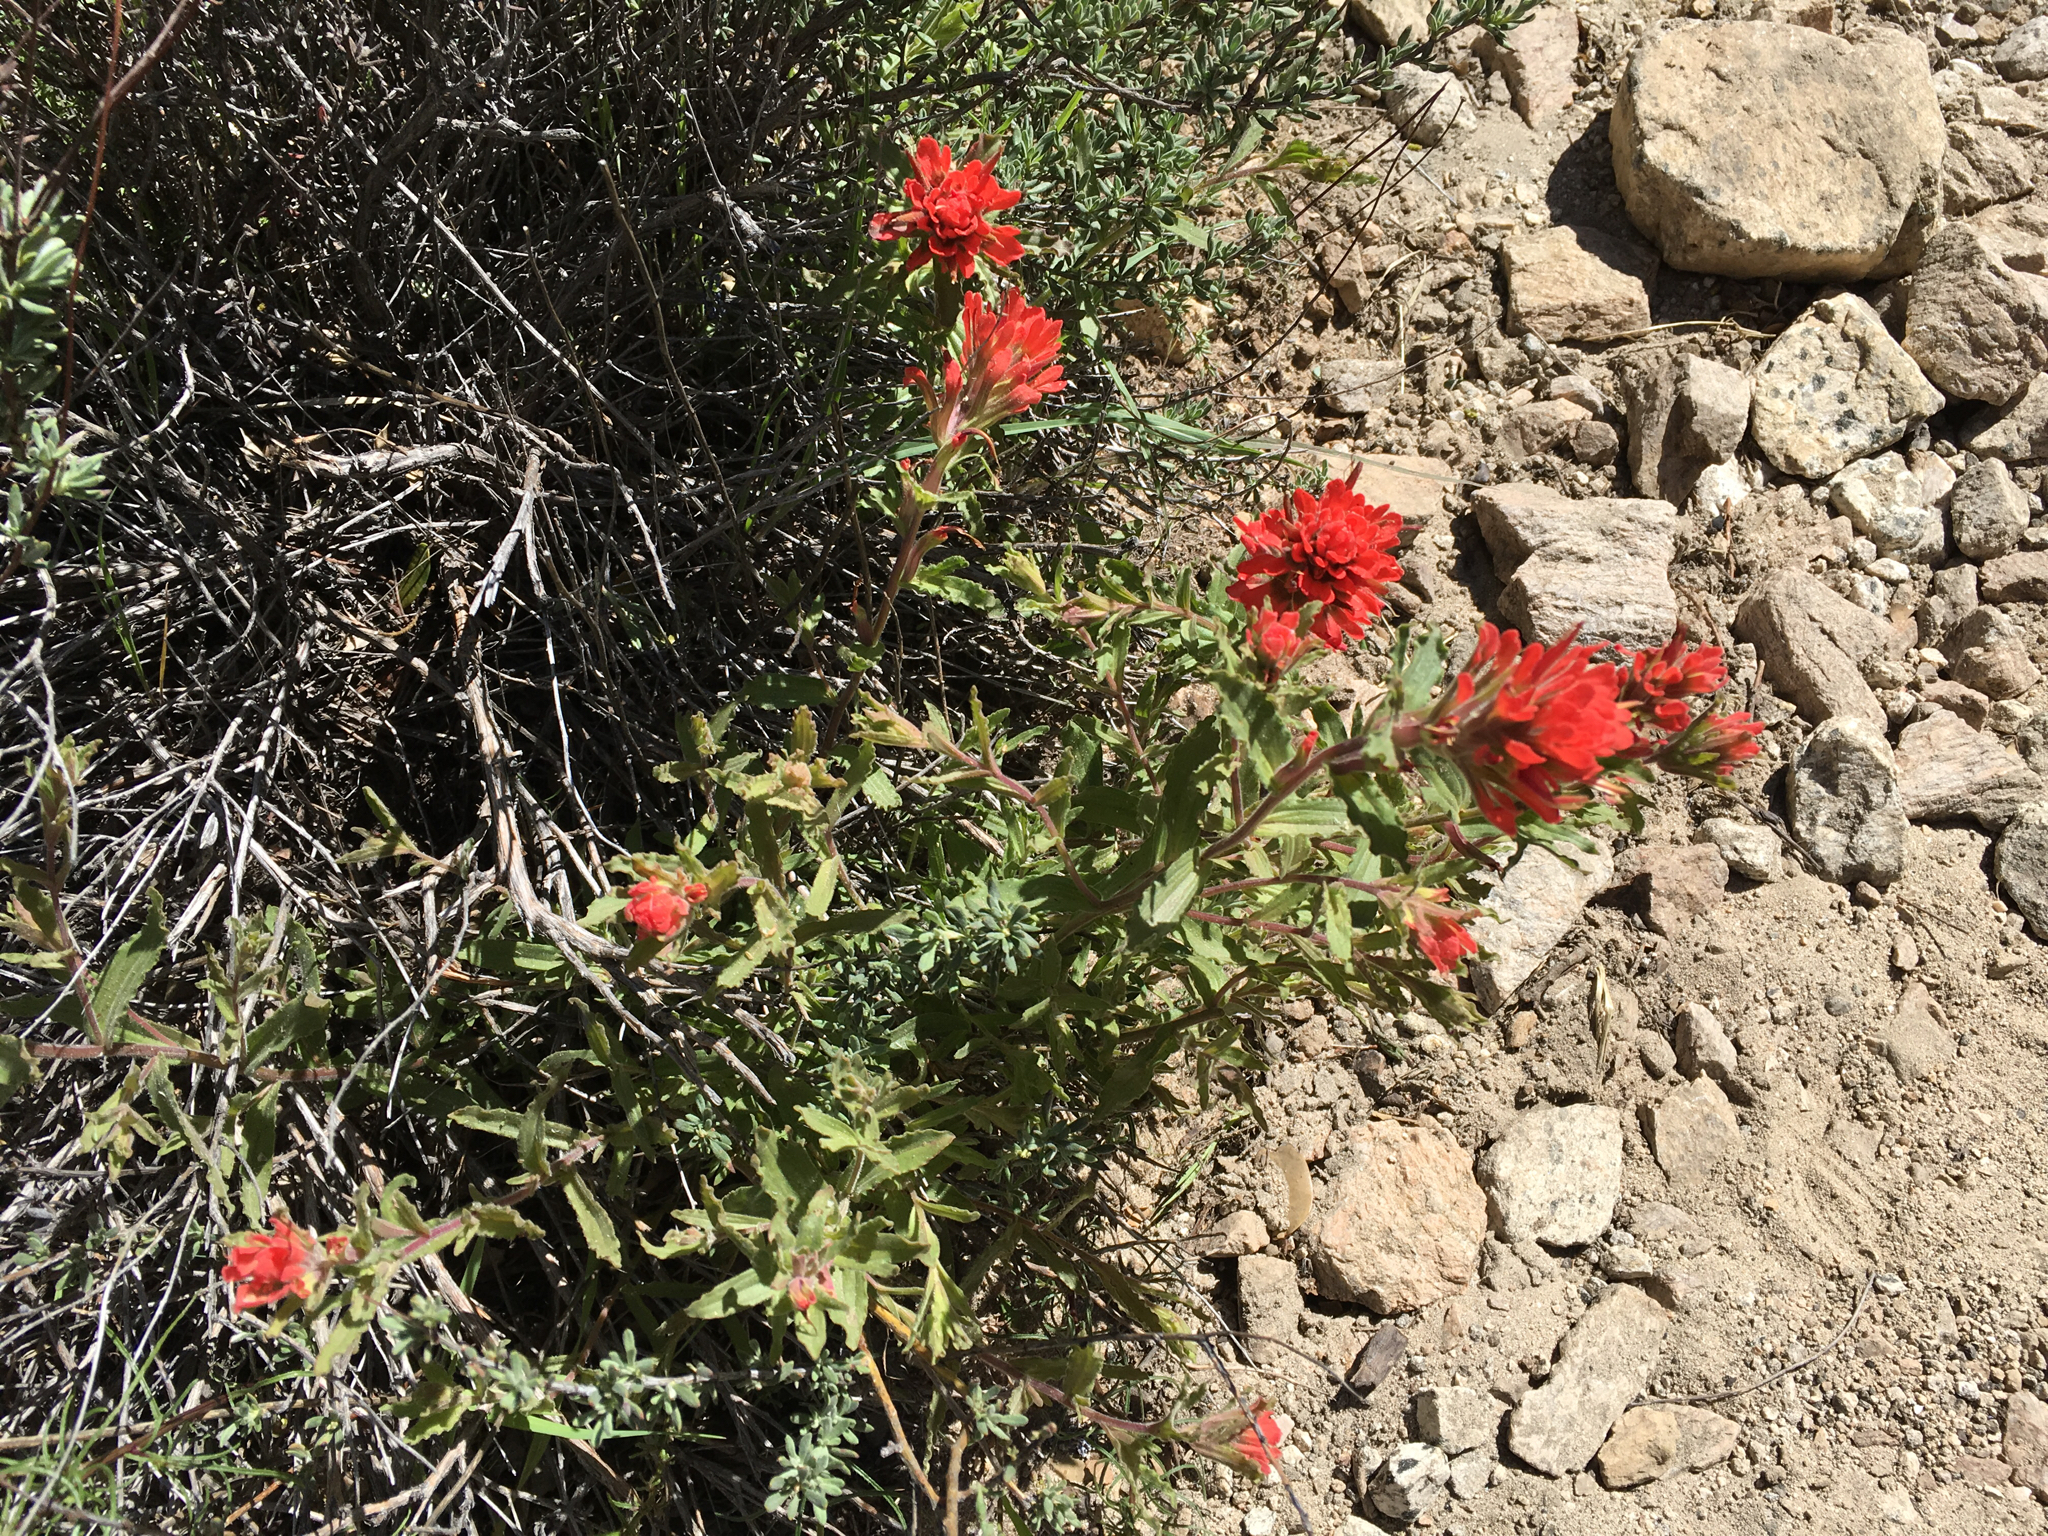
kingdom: Plantae
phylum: Tracheophyta
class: Magnoliopsida
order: Lamiales
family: Orobanchaceae
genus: Castilleja
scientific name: Castilleja applegatei
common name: Wavy-leaf paintbrush
